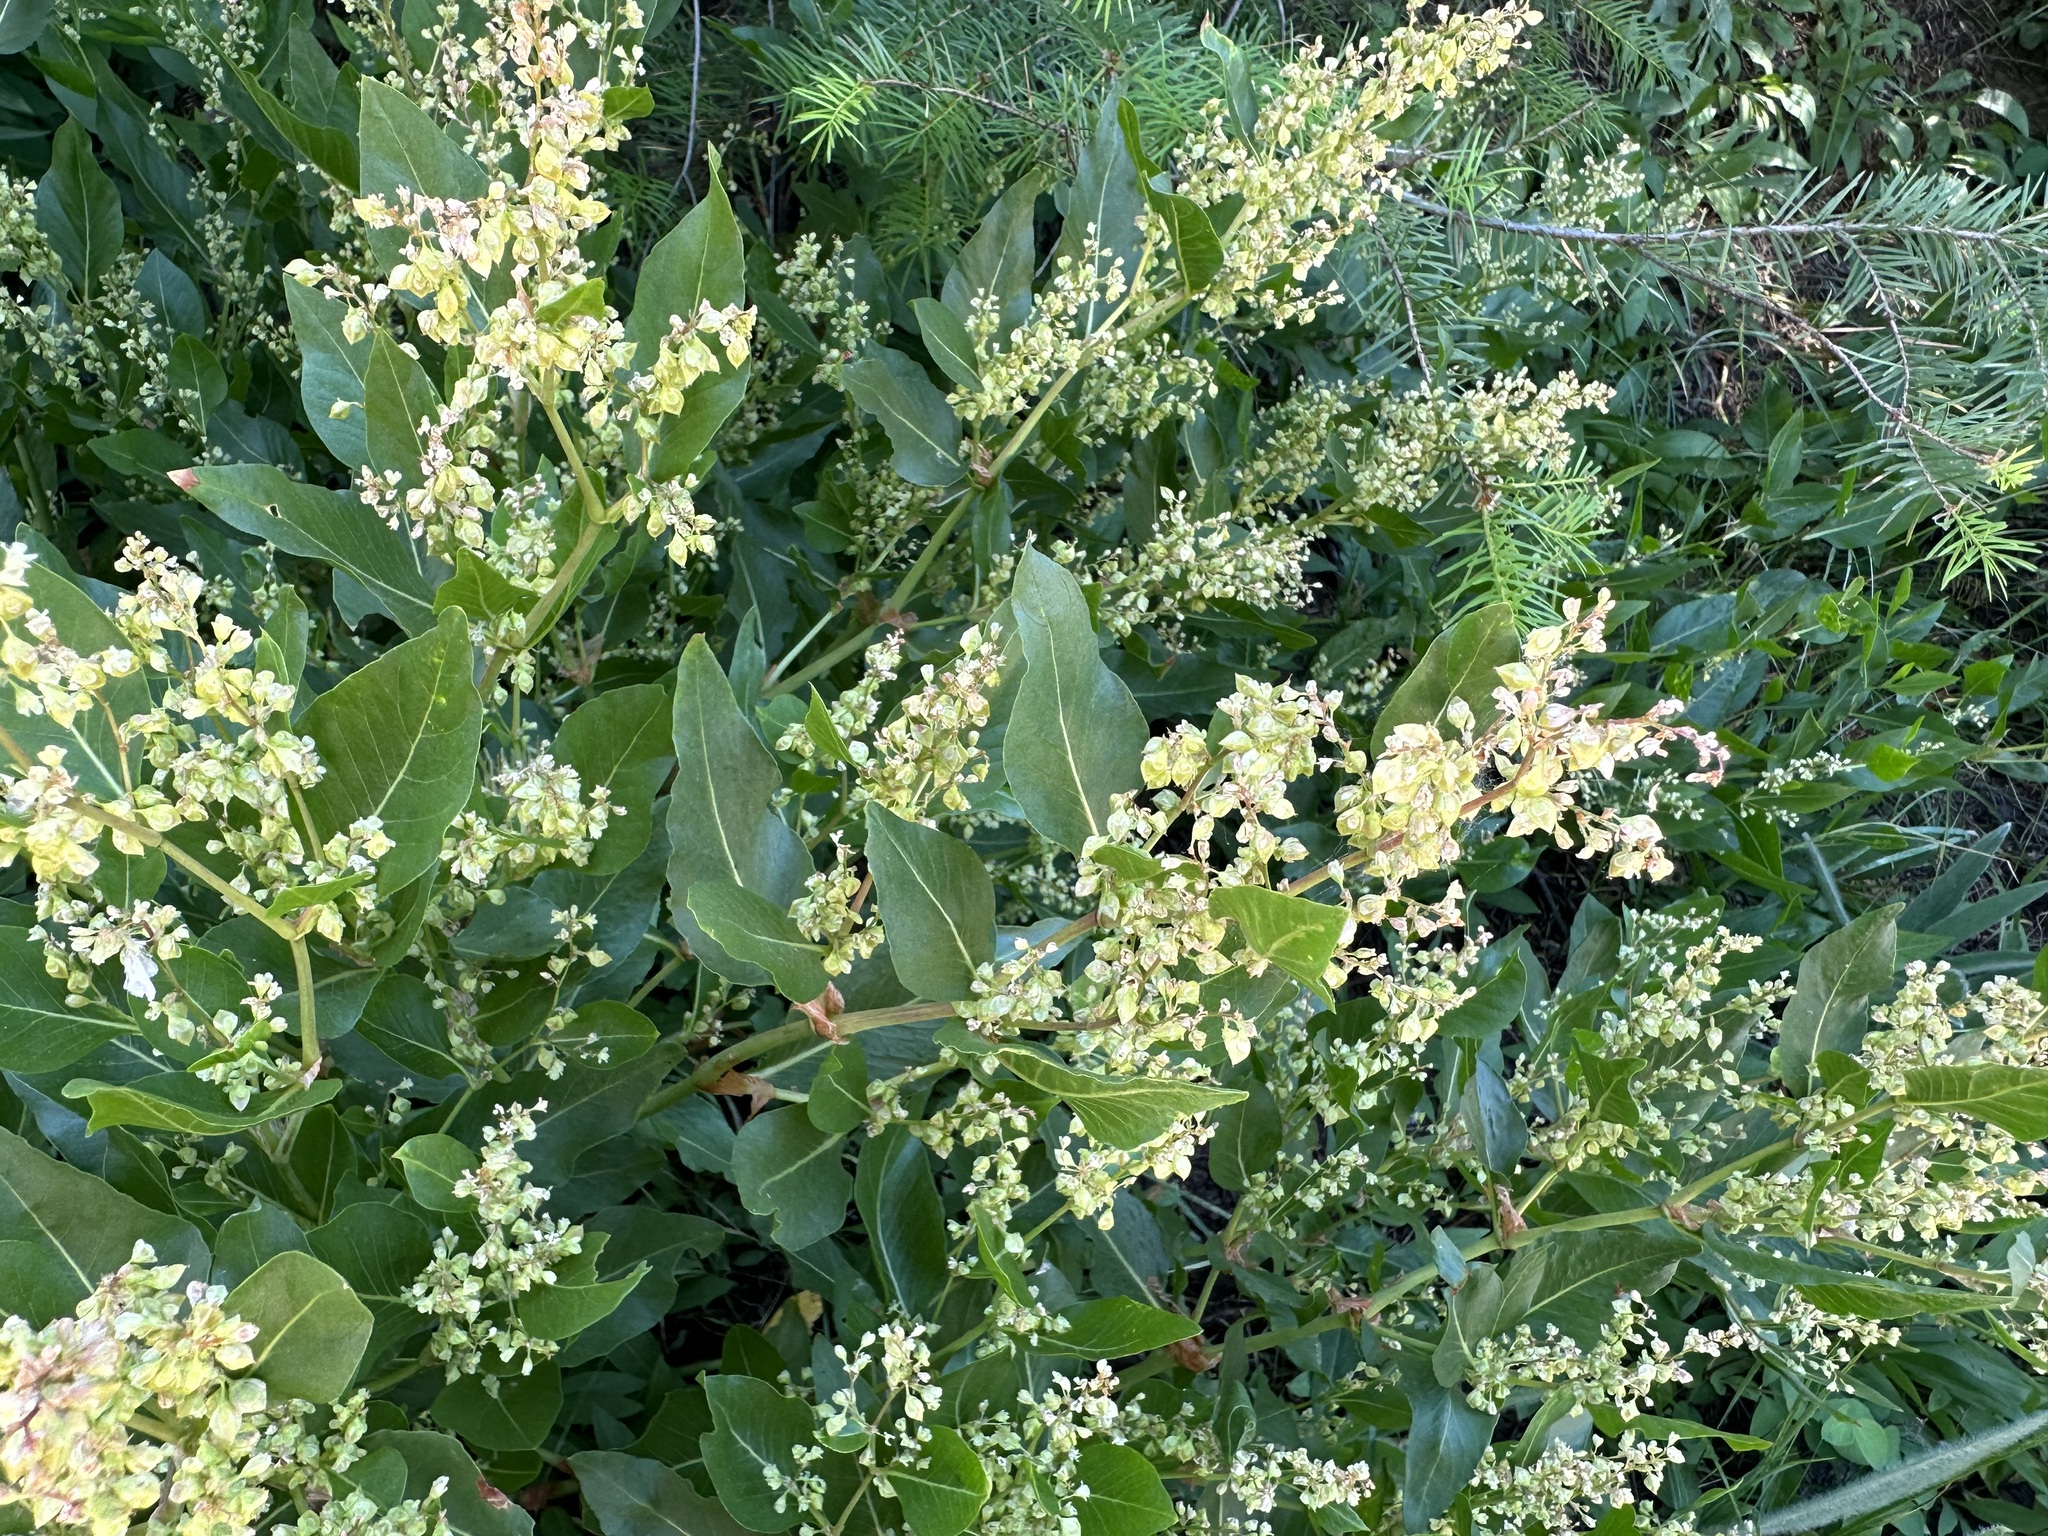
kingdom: Plantae
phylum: Tracheophyta
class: Magnoliopsida
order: Caryophyllales
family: Polygonaceae
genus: Koenigia
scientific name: Koenigia phytolaccifolia
